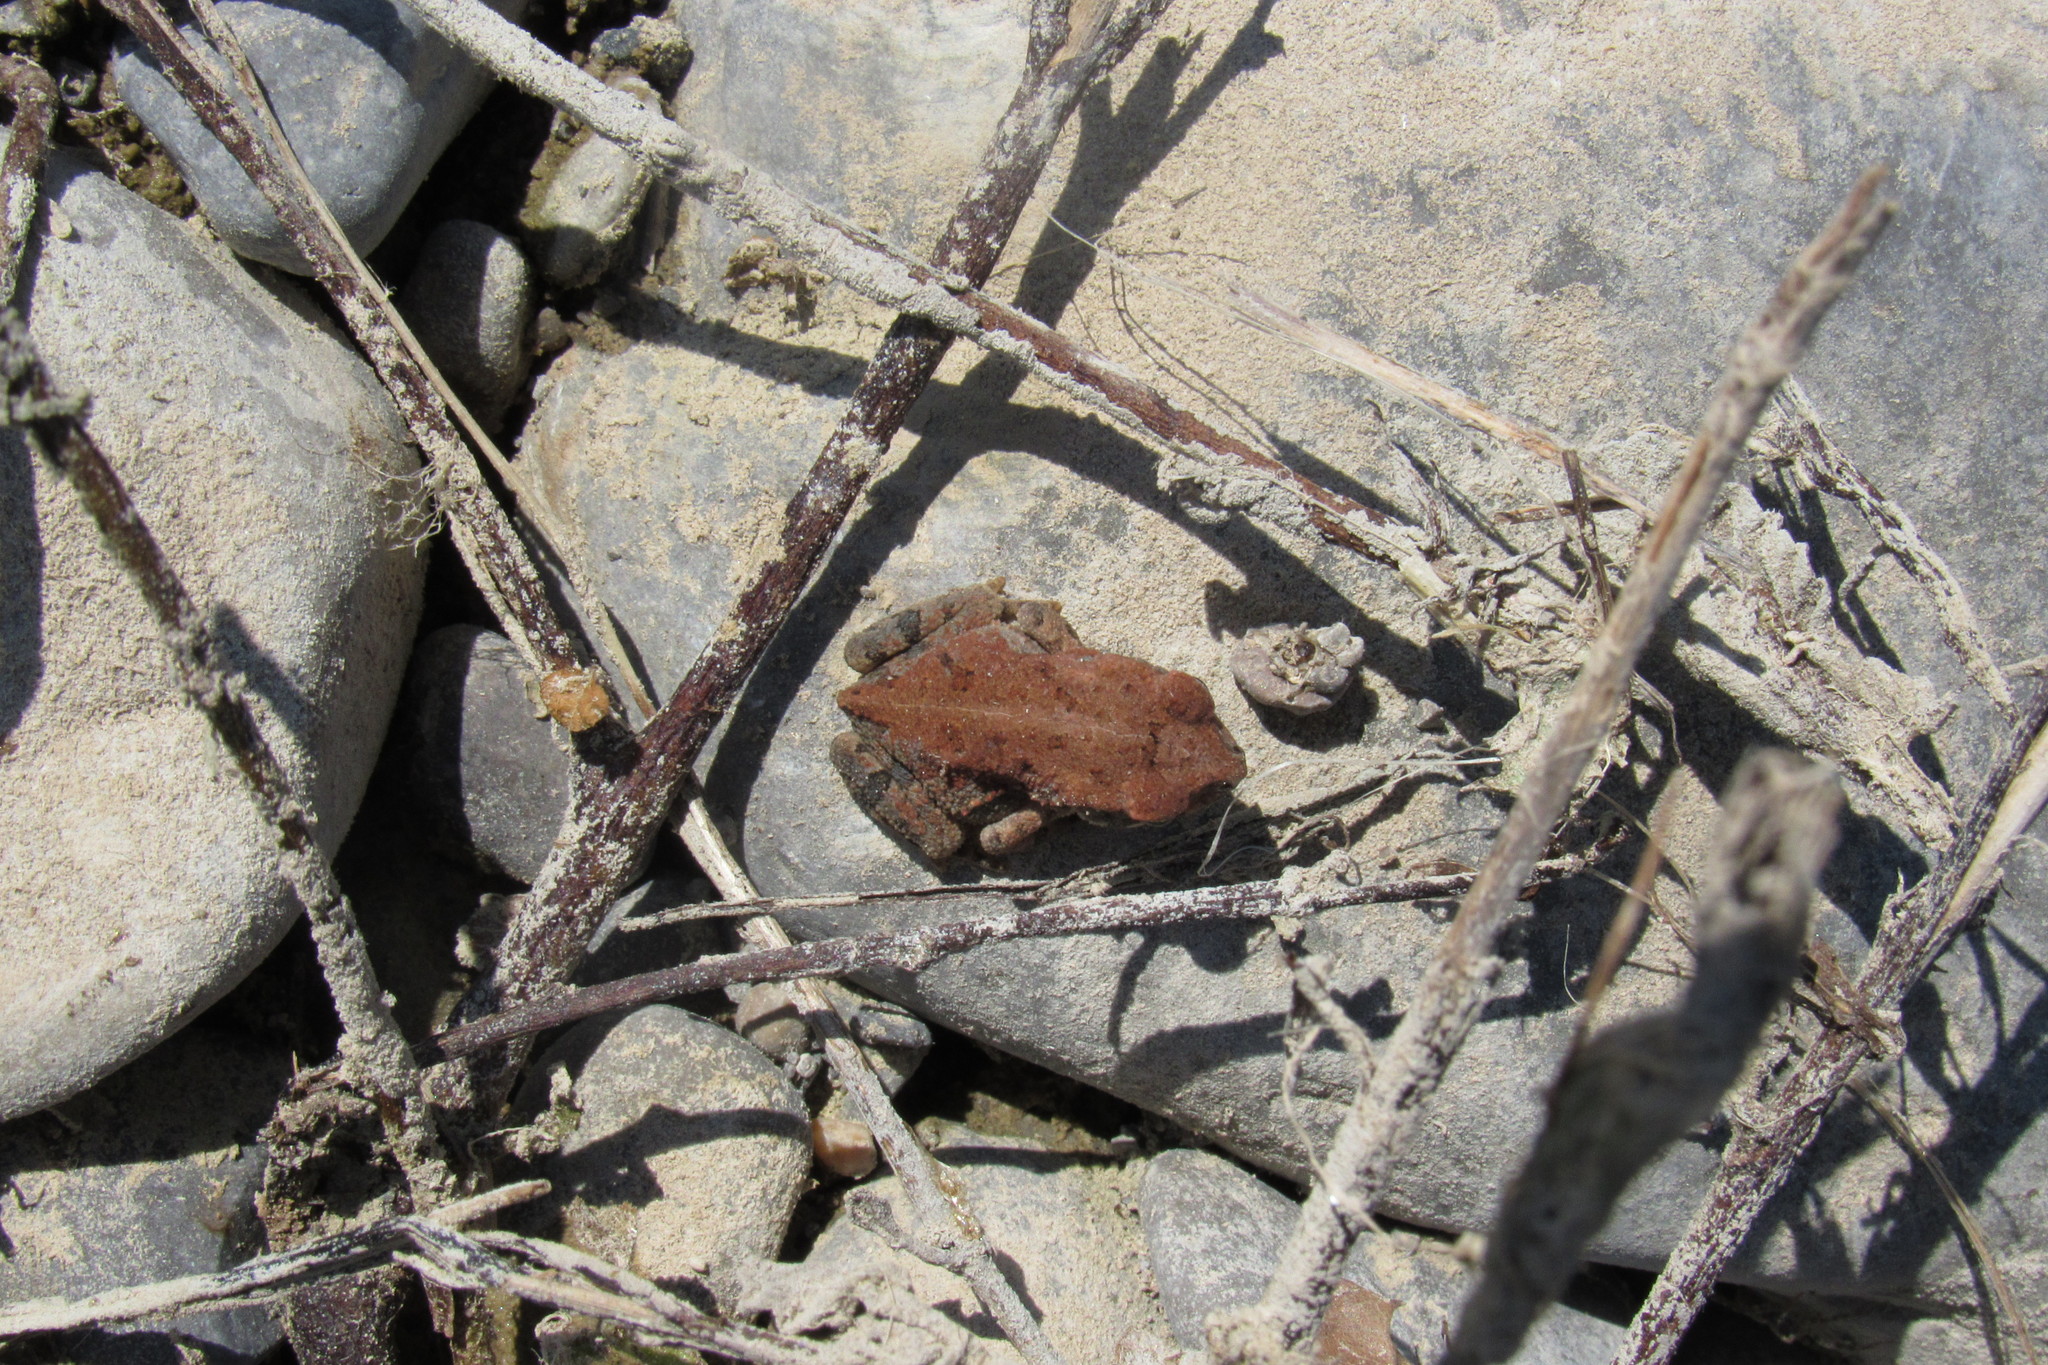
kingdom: Animalia
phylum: Chordata
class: Amphibia
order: Anura
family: Bufonidae
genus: Incilius
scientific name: Incilius nebulifer
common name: Gulf coast toad
